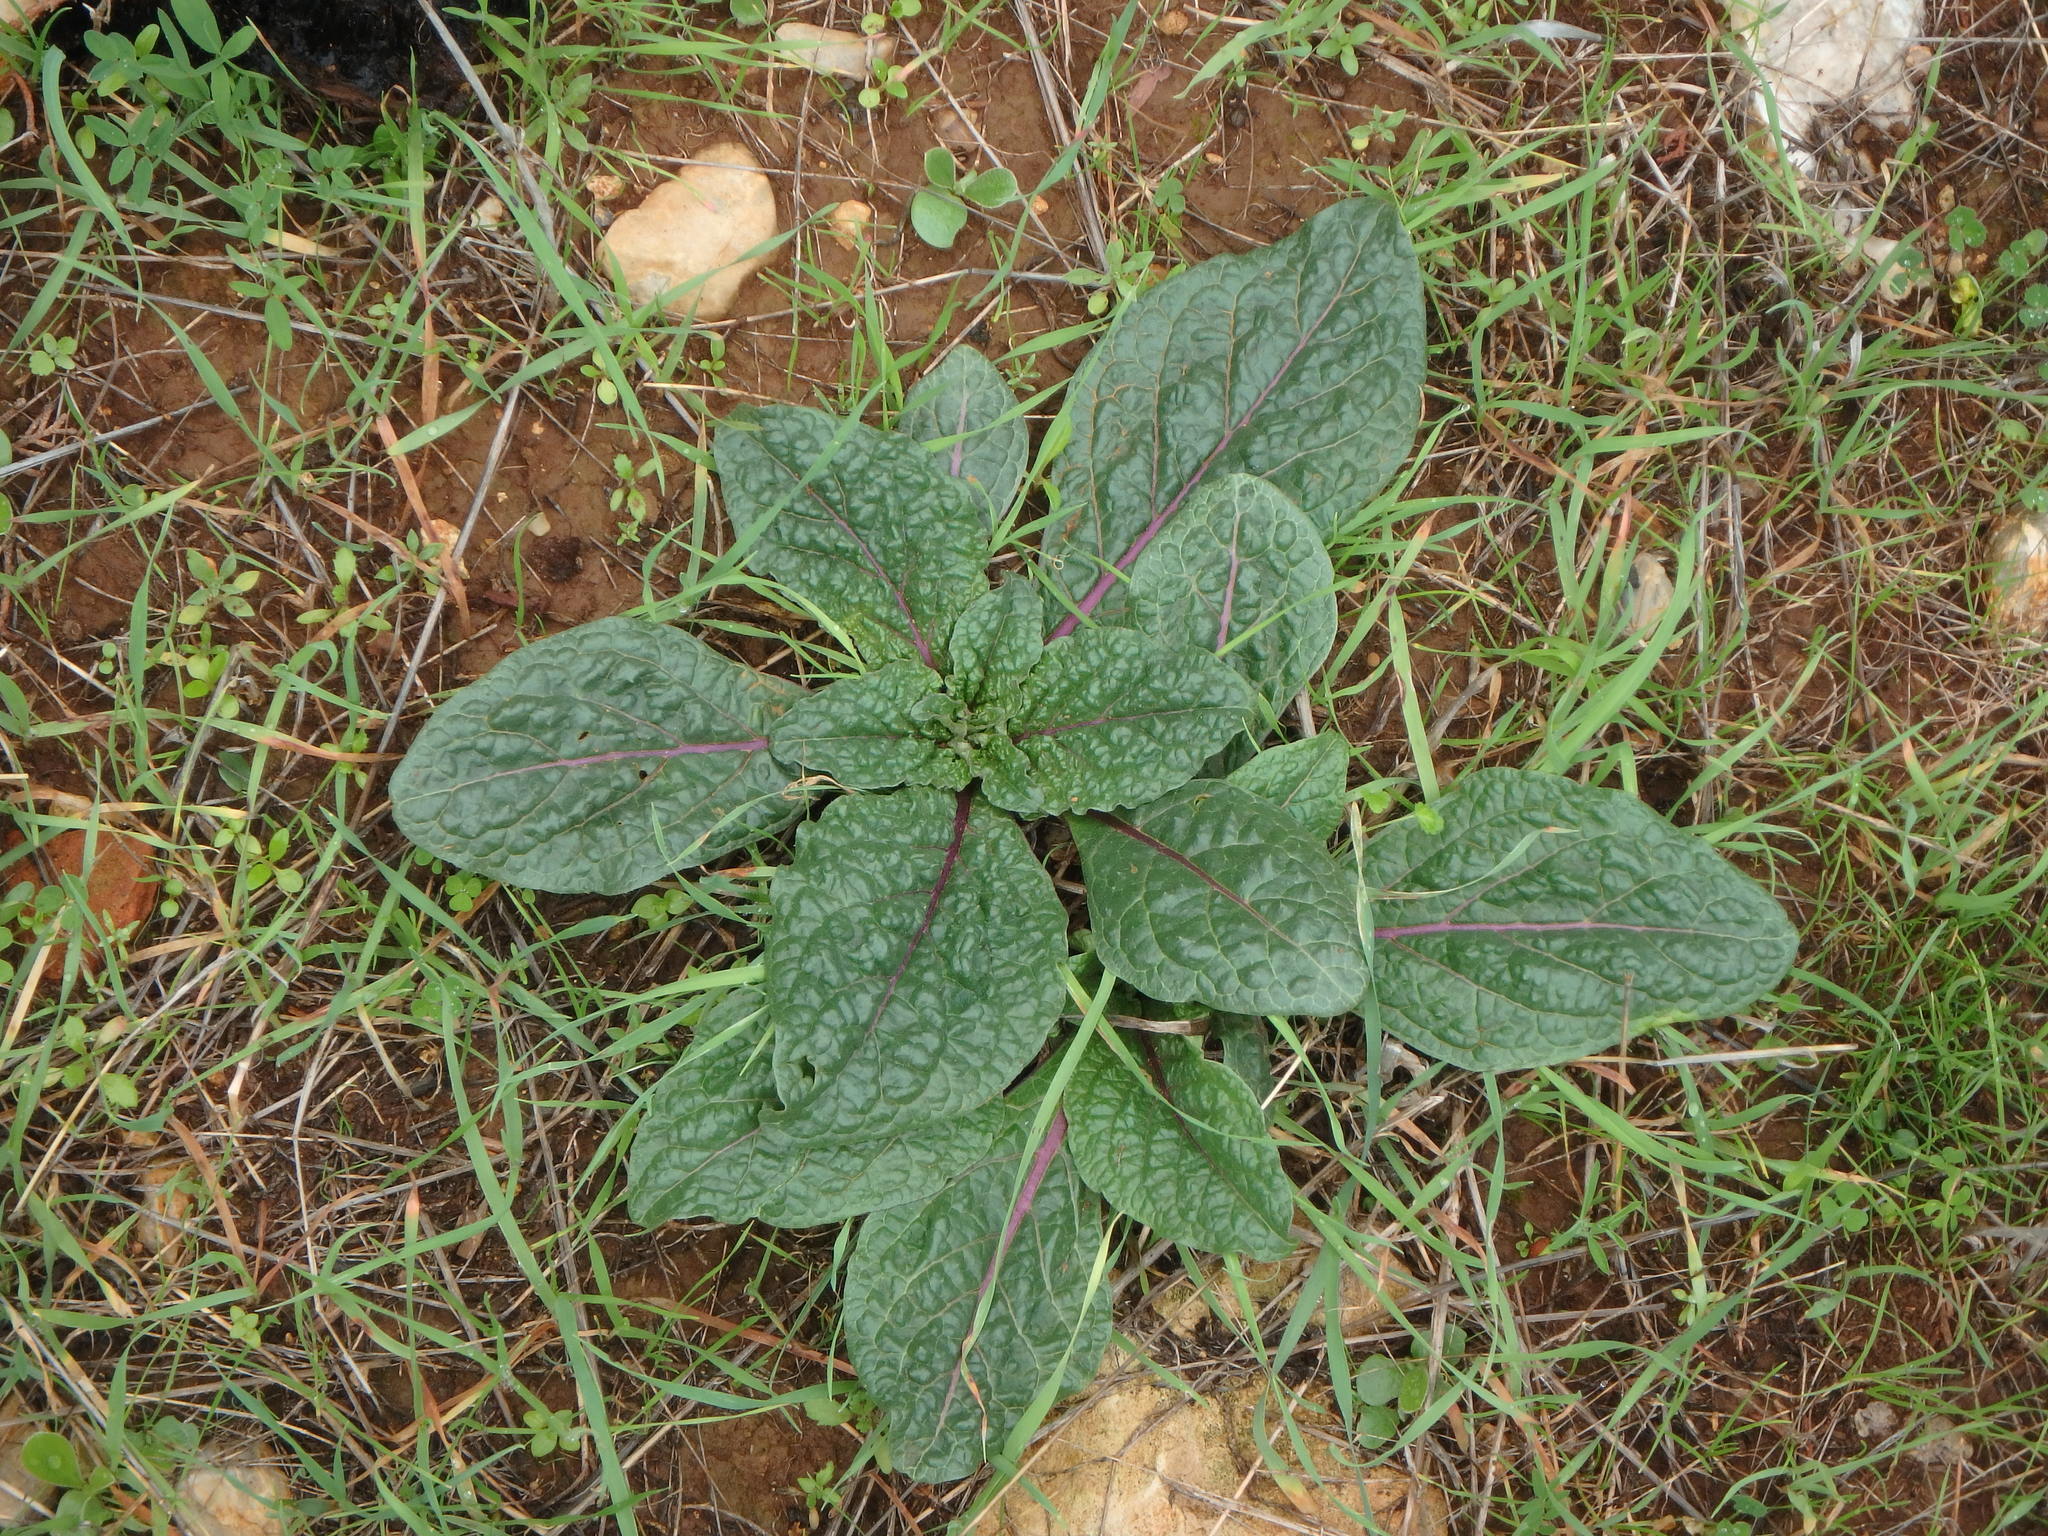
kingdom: Plantae
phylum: Tracheophyta
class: Magnoliopsida
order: Solanales
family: Solanaceae
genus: Mandragora
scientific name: Mandragora officinarum
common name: Mandrake
